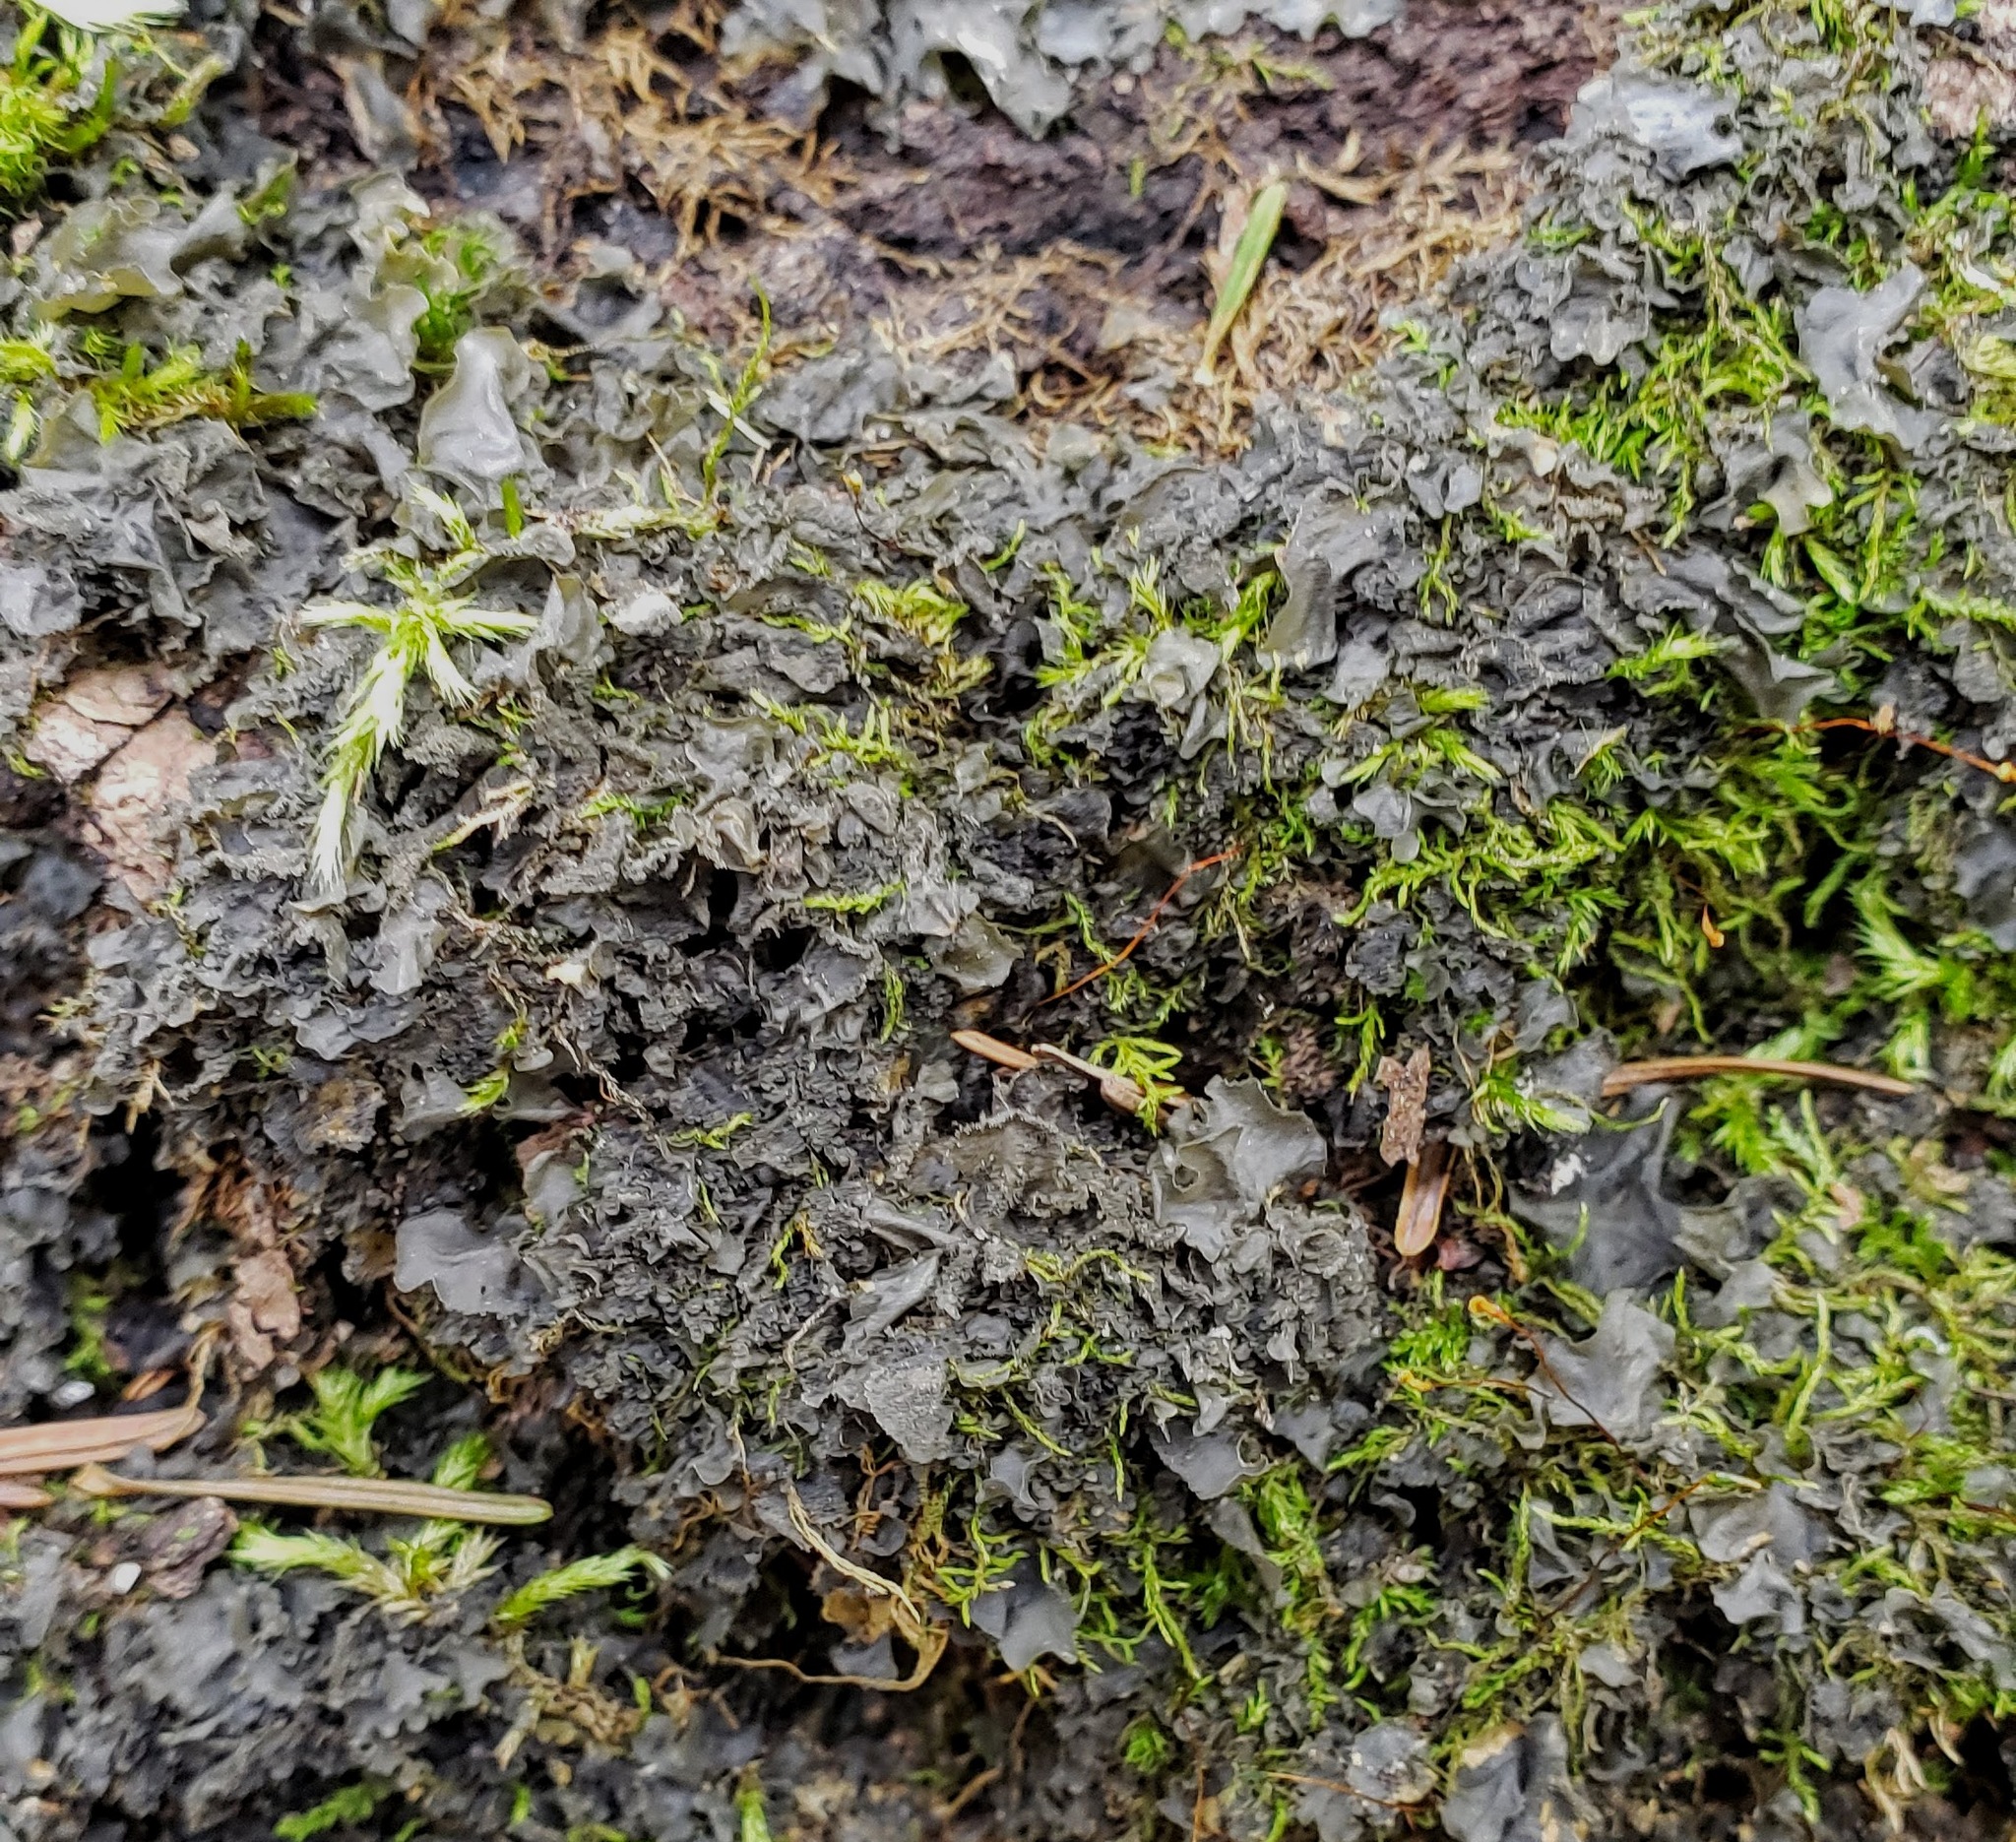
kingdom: Fungi
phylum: Ascomycota
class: Lecanoromycetes
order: Peltigerales
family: Collemataceae
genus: Leptogium
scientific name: Leptogium cyanescens
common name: Blue jellyskin
